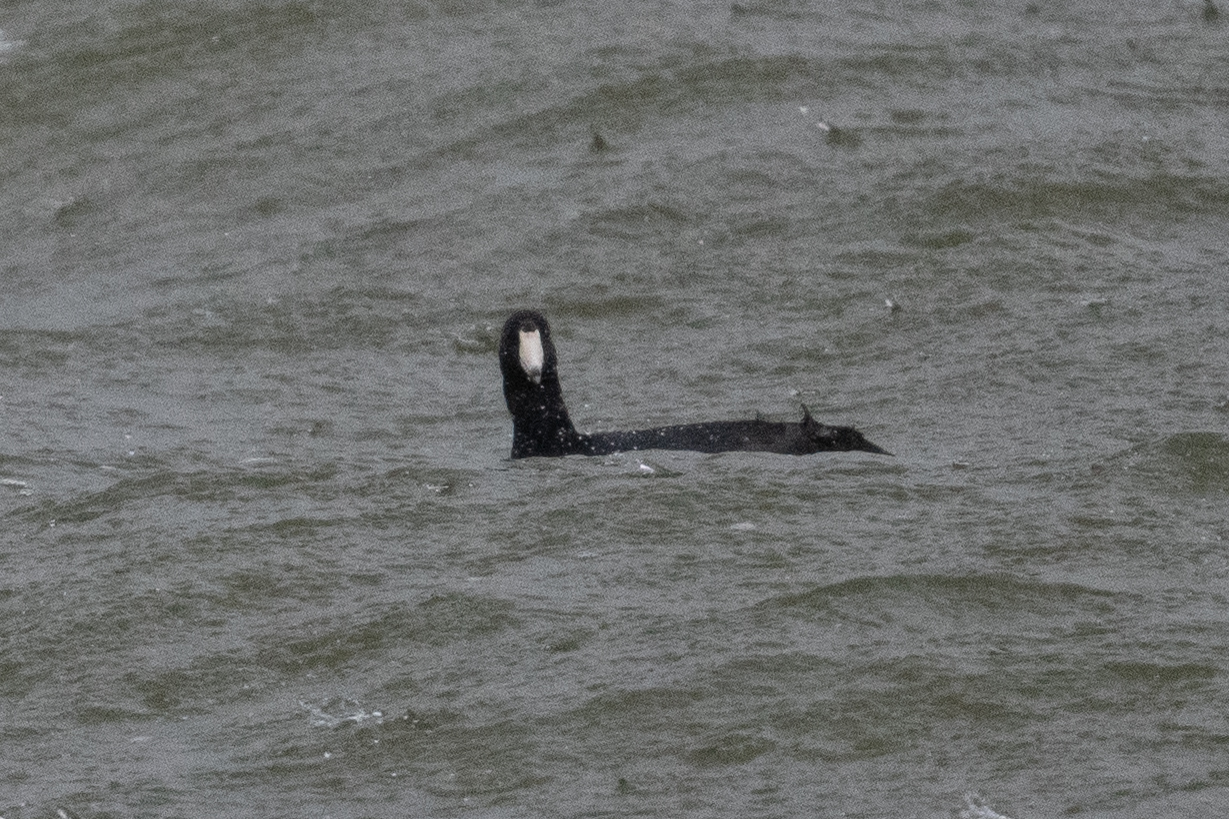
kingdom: Animalia
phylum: Chordata
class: Aves
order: Gruiformes
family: Rallidae
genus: Fulica
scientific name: Fulica americana
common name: American coot
